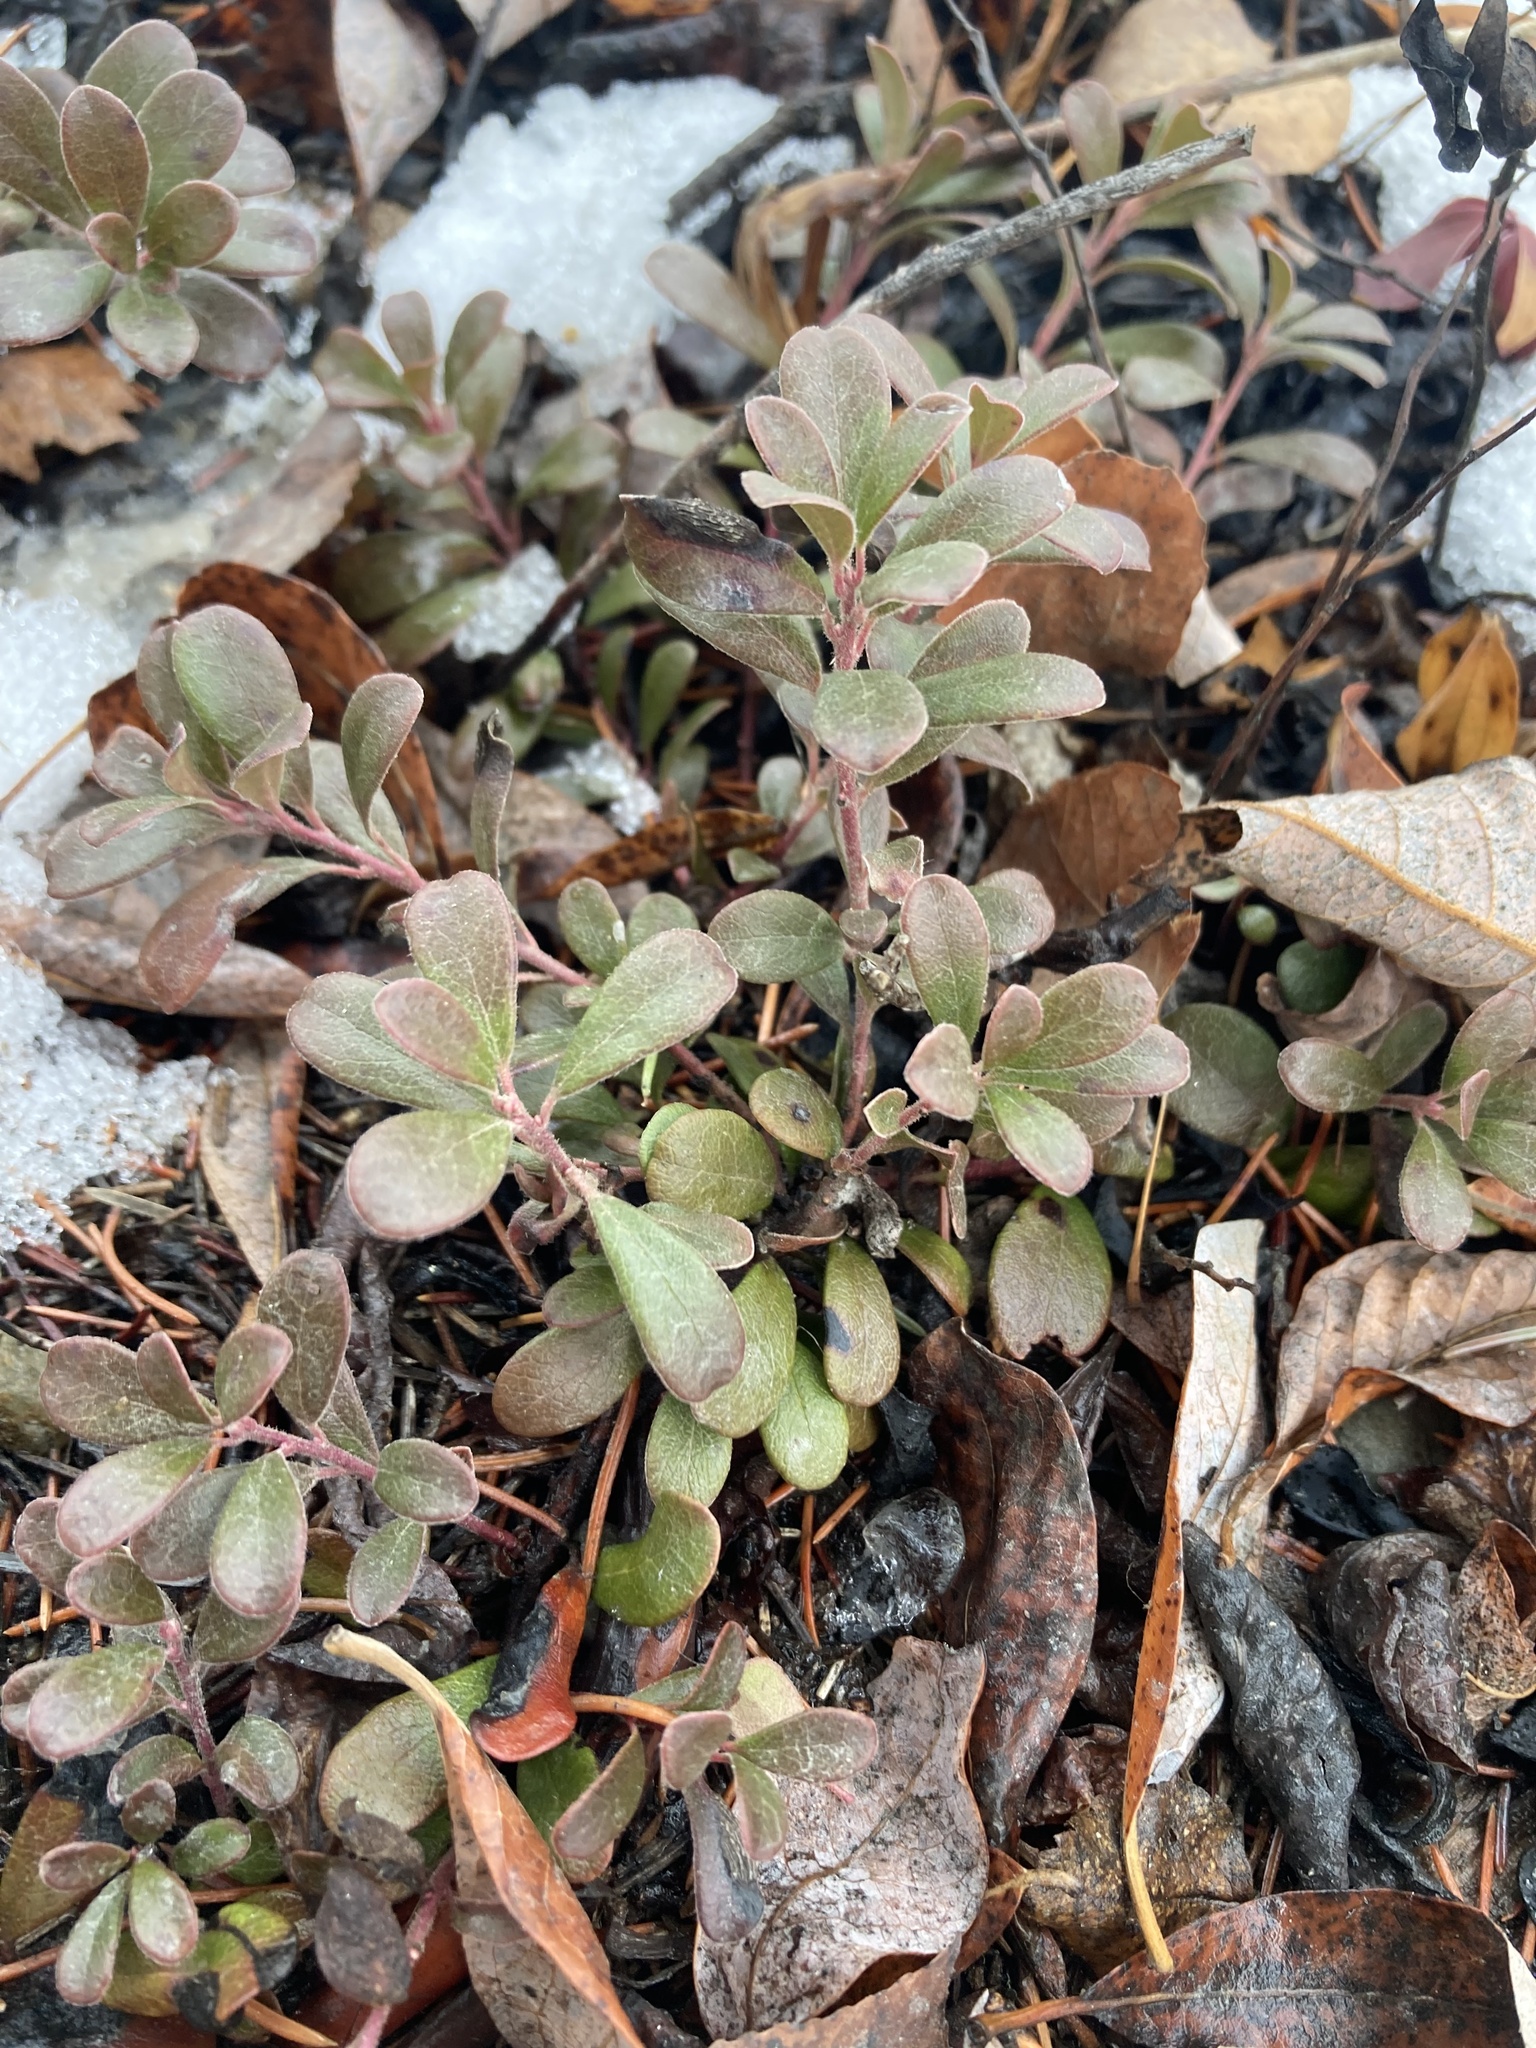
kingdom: Plantae
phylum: Tracheophyta
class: Magnoliopsida
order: Ericales
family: Ericaceae
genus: Arctostaphylos
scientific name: Arctostaphylos uva-ursi
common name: Bearberry
